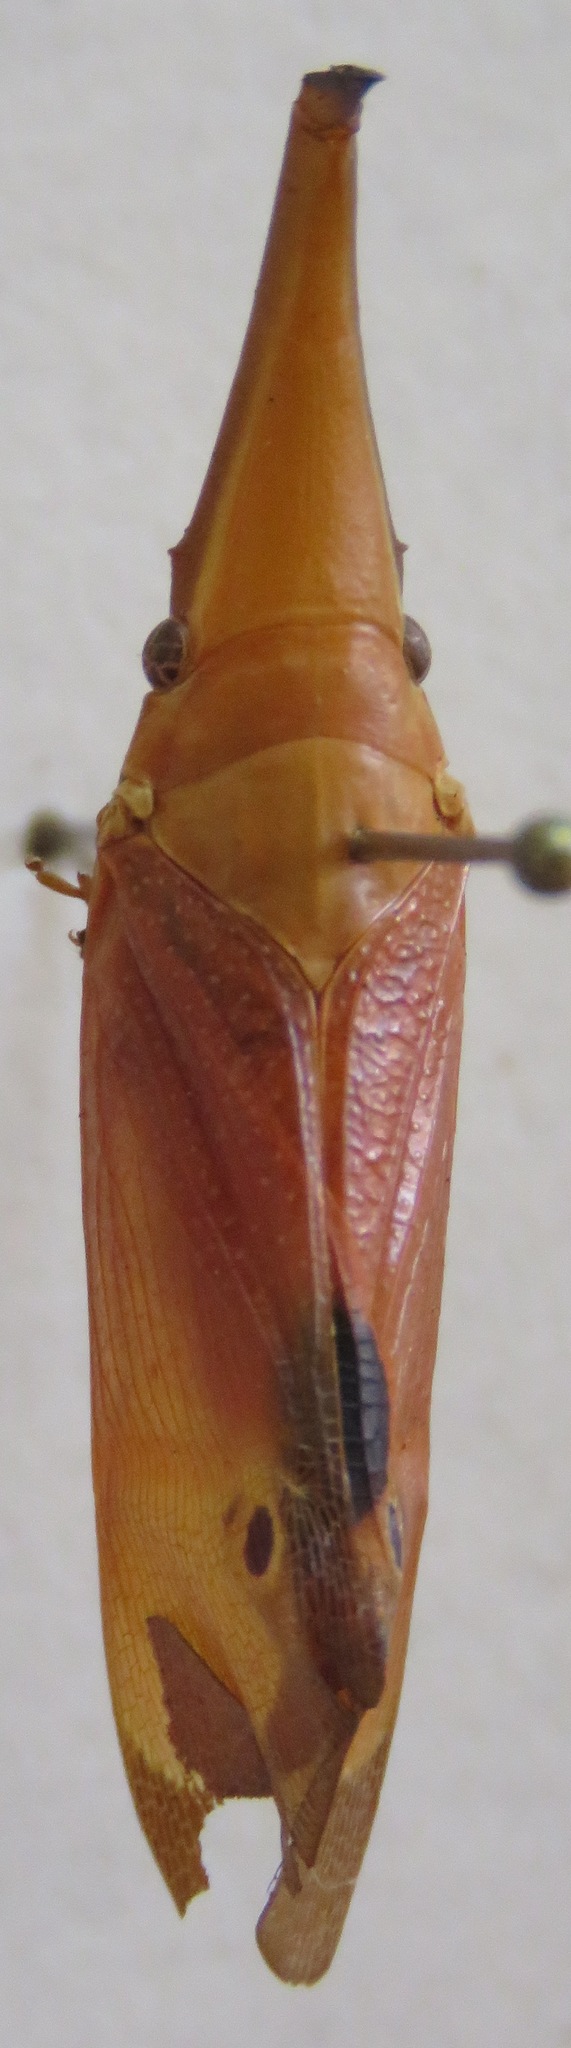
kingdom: Animalia
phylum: Arthropoda
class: Insecta
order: Hemiptera
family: Fulgoridae
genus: Odontoptera
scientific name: Odontoptera carrenoi
